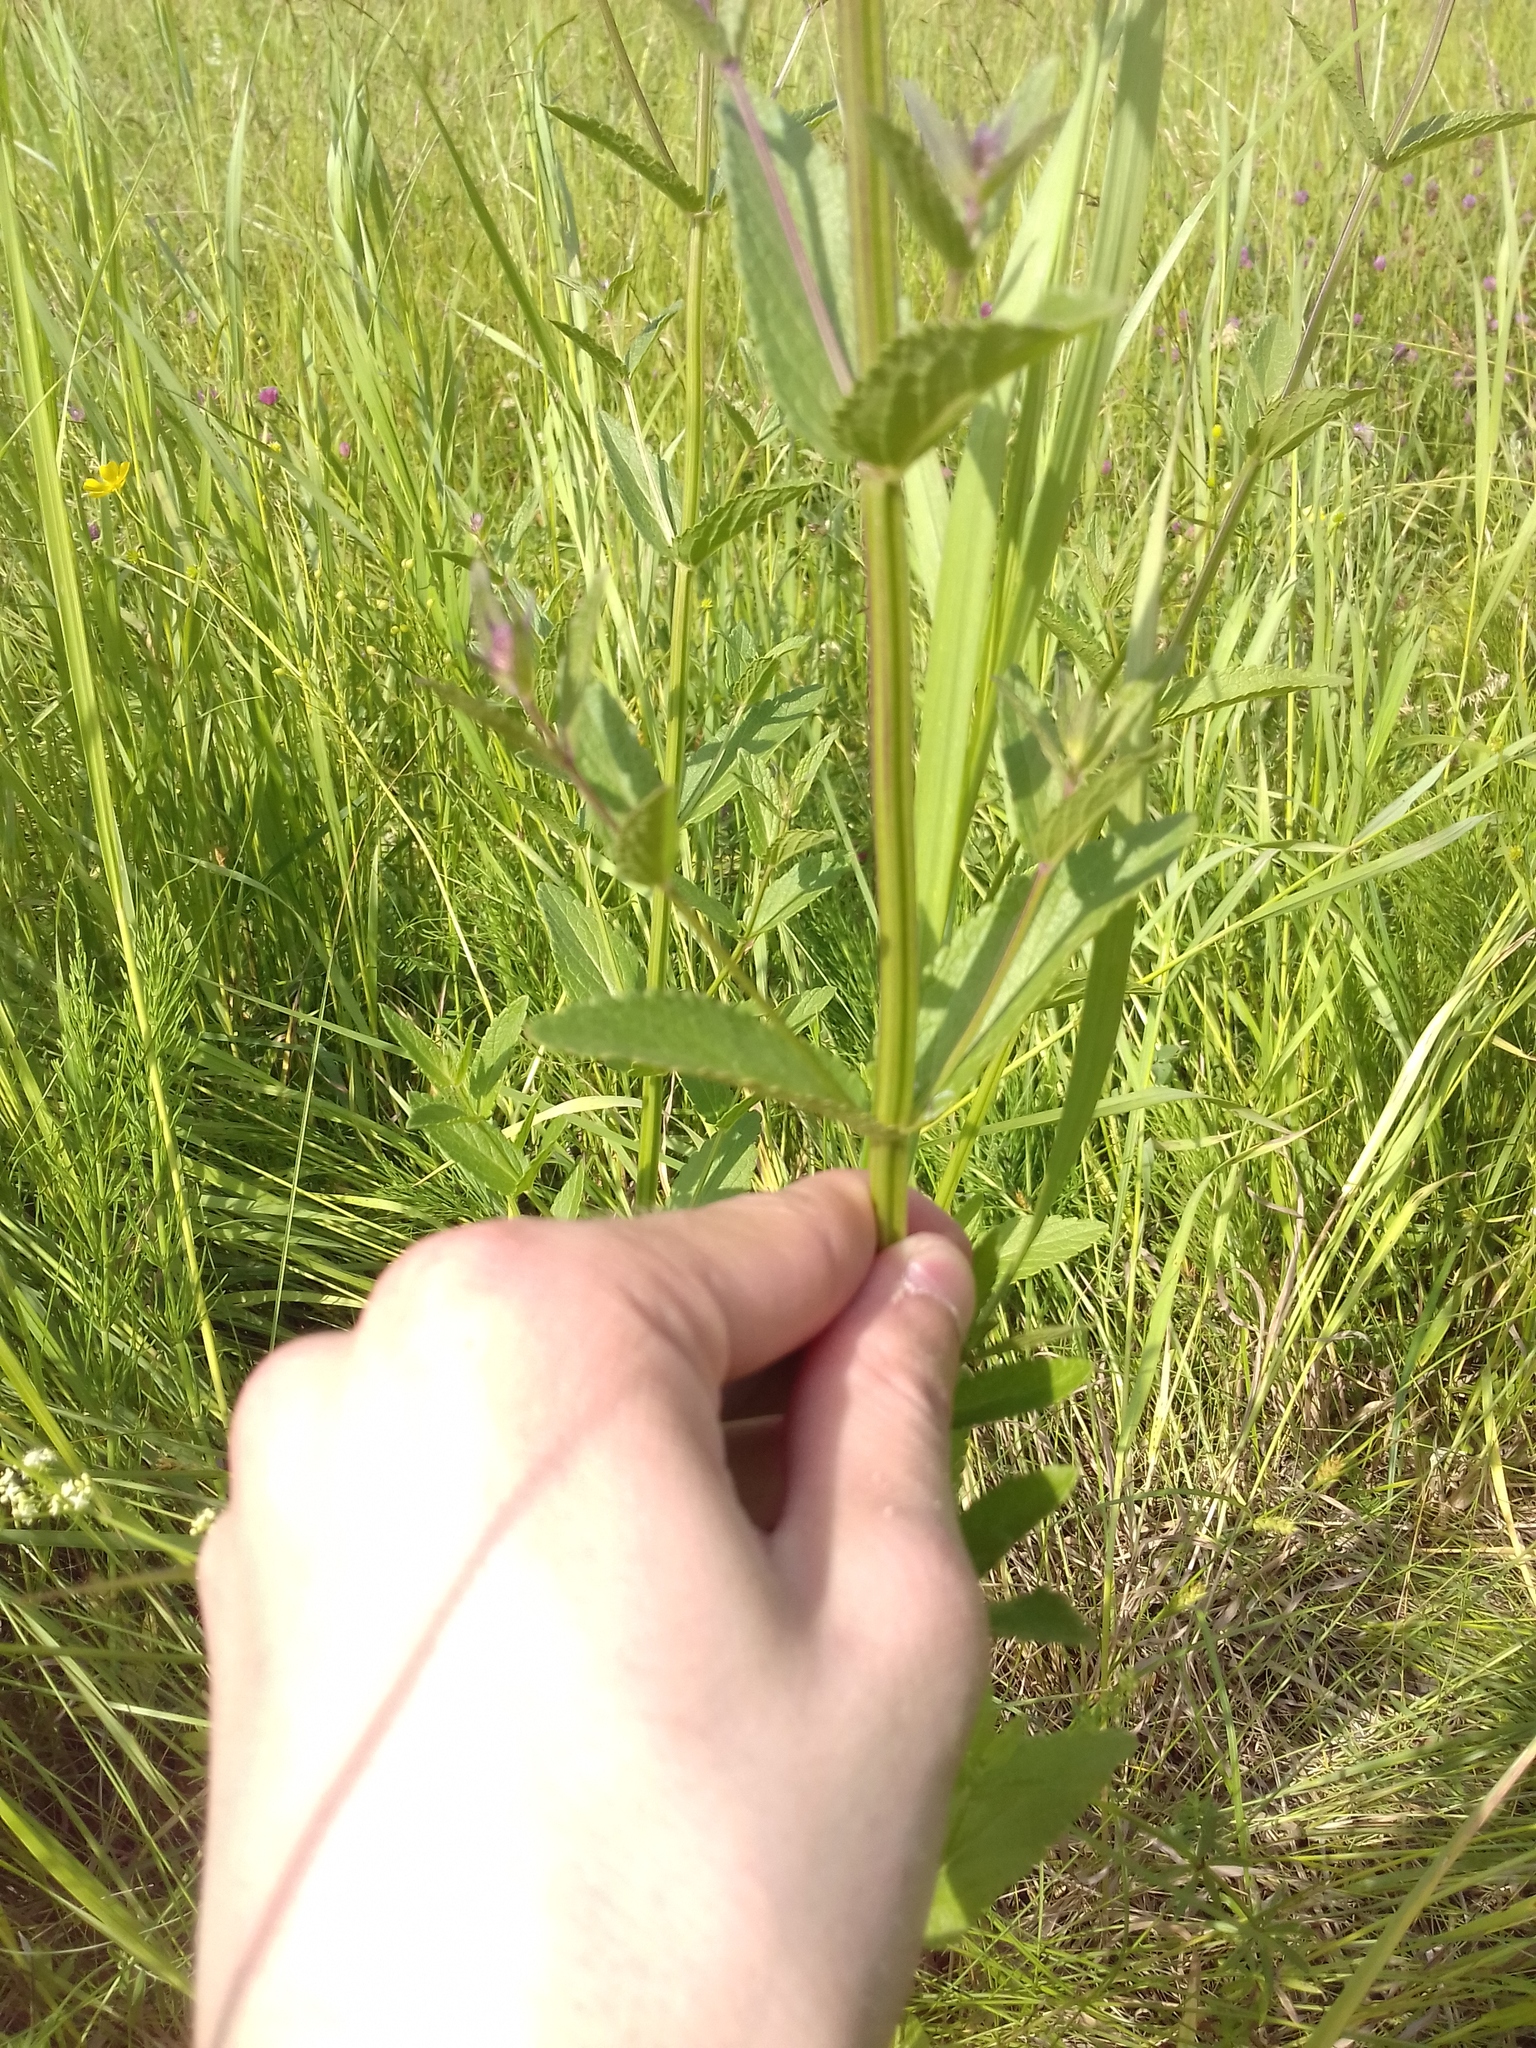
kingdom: Plantae
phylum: Tracheophyta
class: Magnoliopsida
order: Lamiales
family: Lamiaceae
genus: Nepeta
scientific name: Nepeta nuda
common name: Hairless catmint
